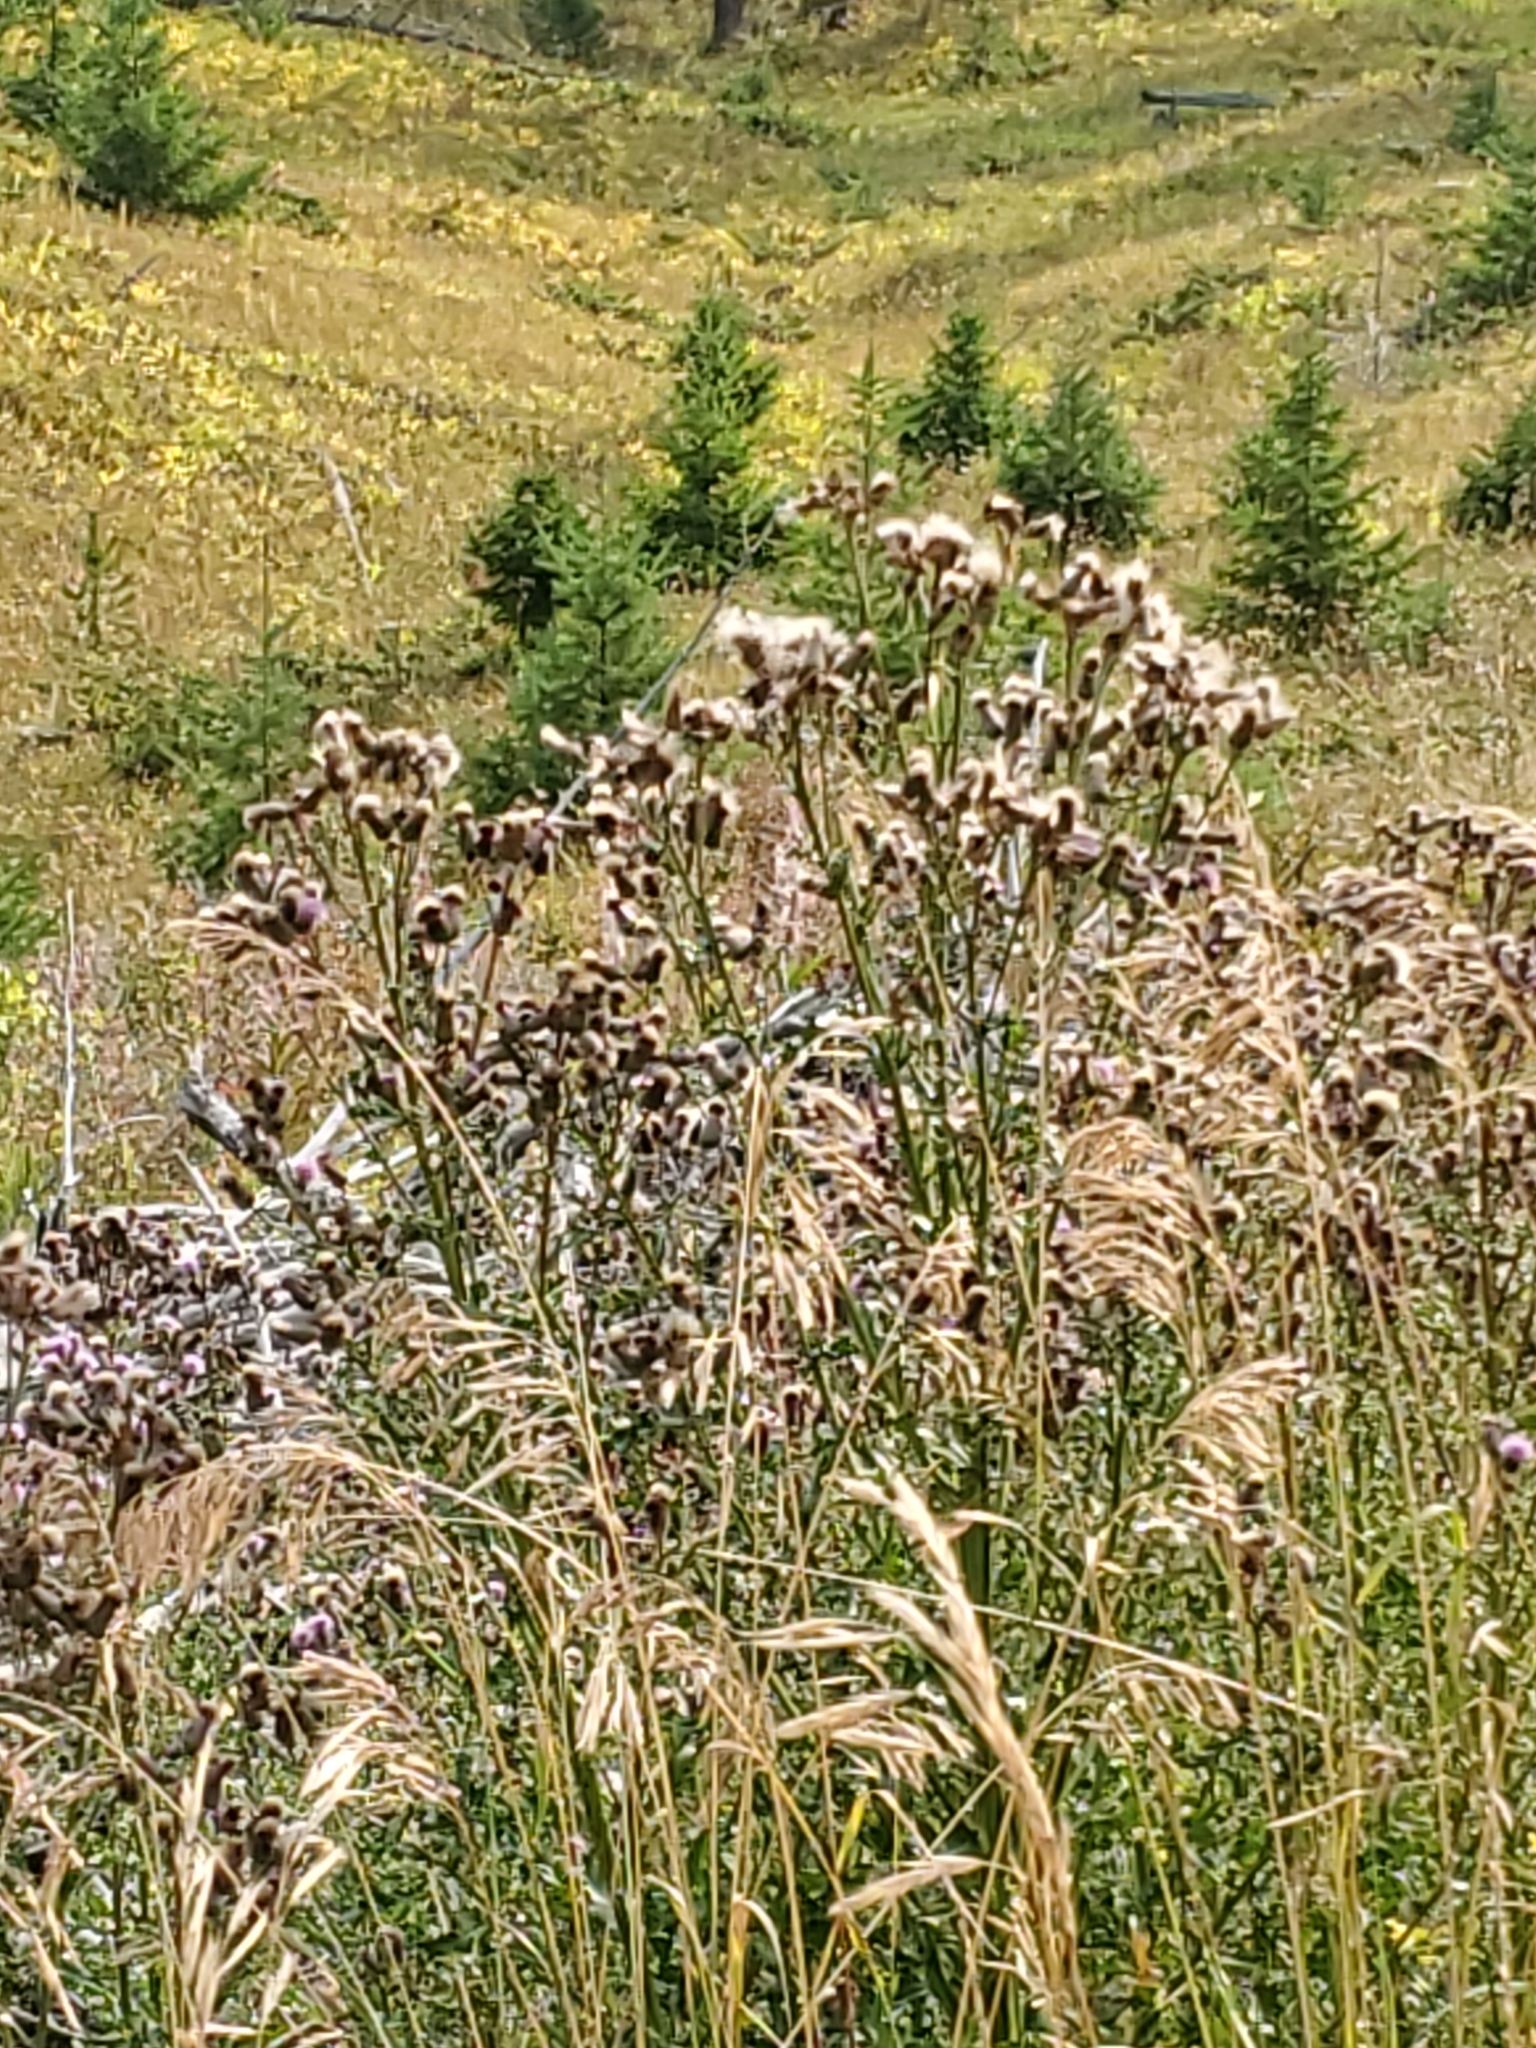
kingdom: Plantae
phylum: Tracheophyta
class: Magnoliopsida
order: Asterales
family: Asteraceae
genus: Cirsium
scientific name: Cirsium arvense
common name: Creeping thistle
